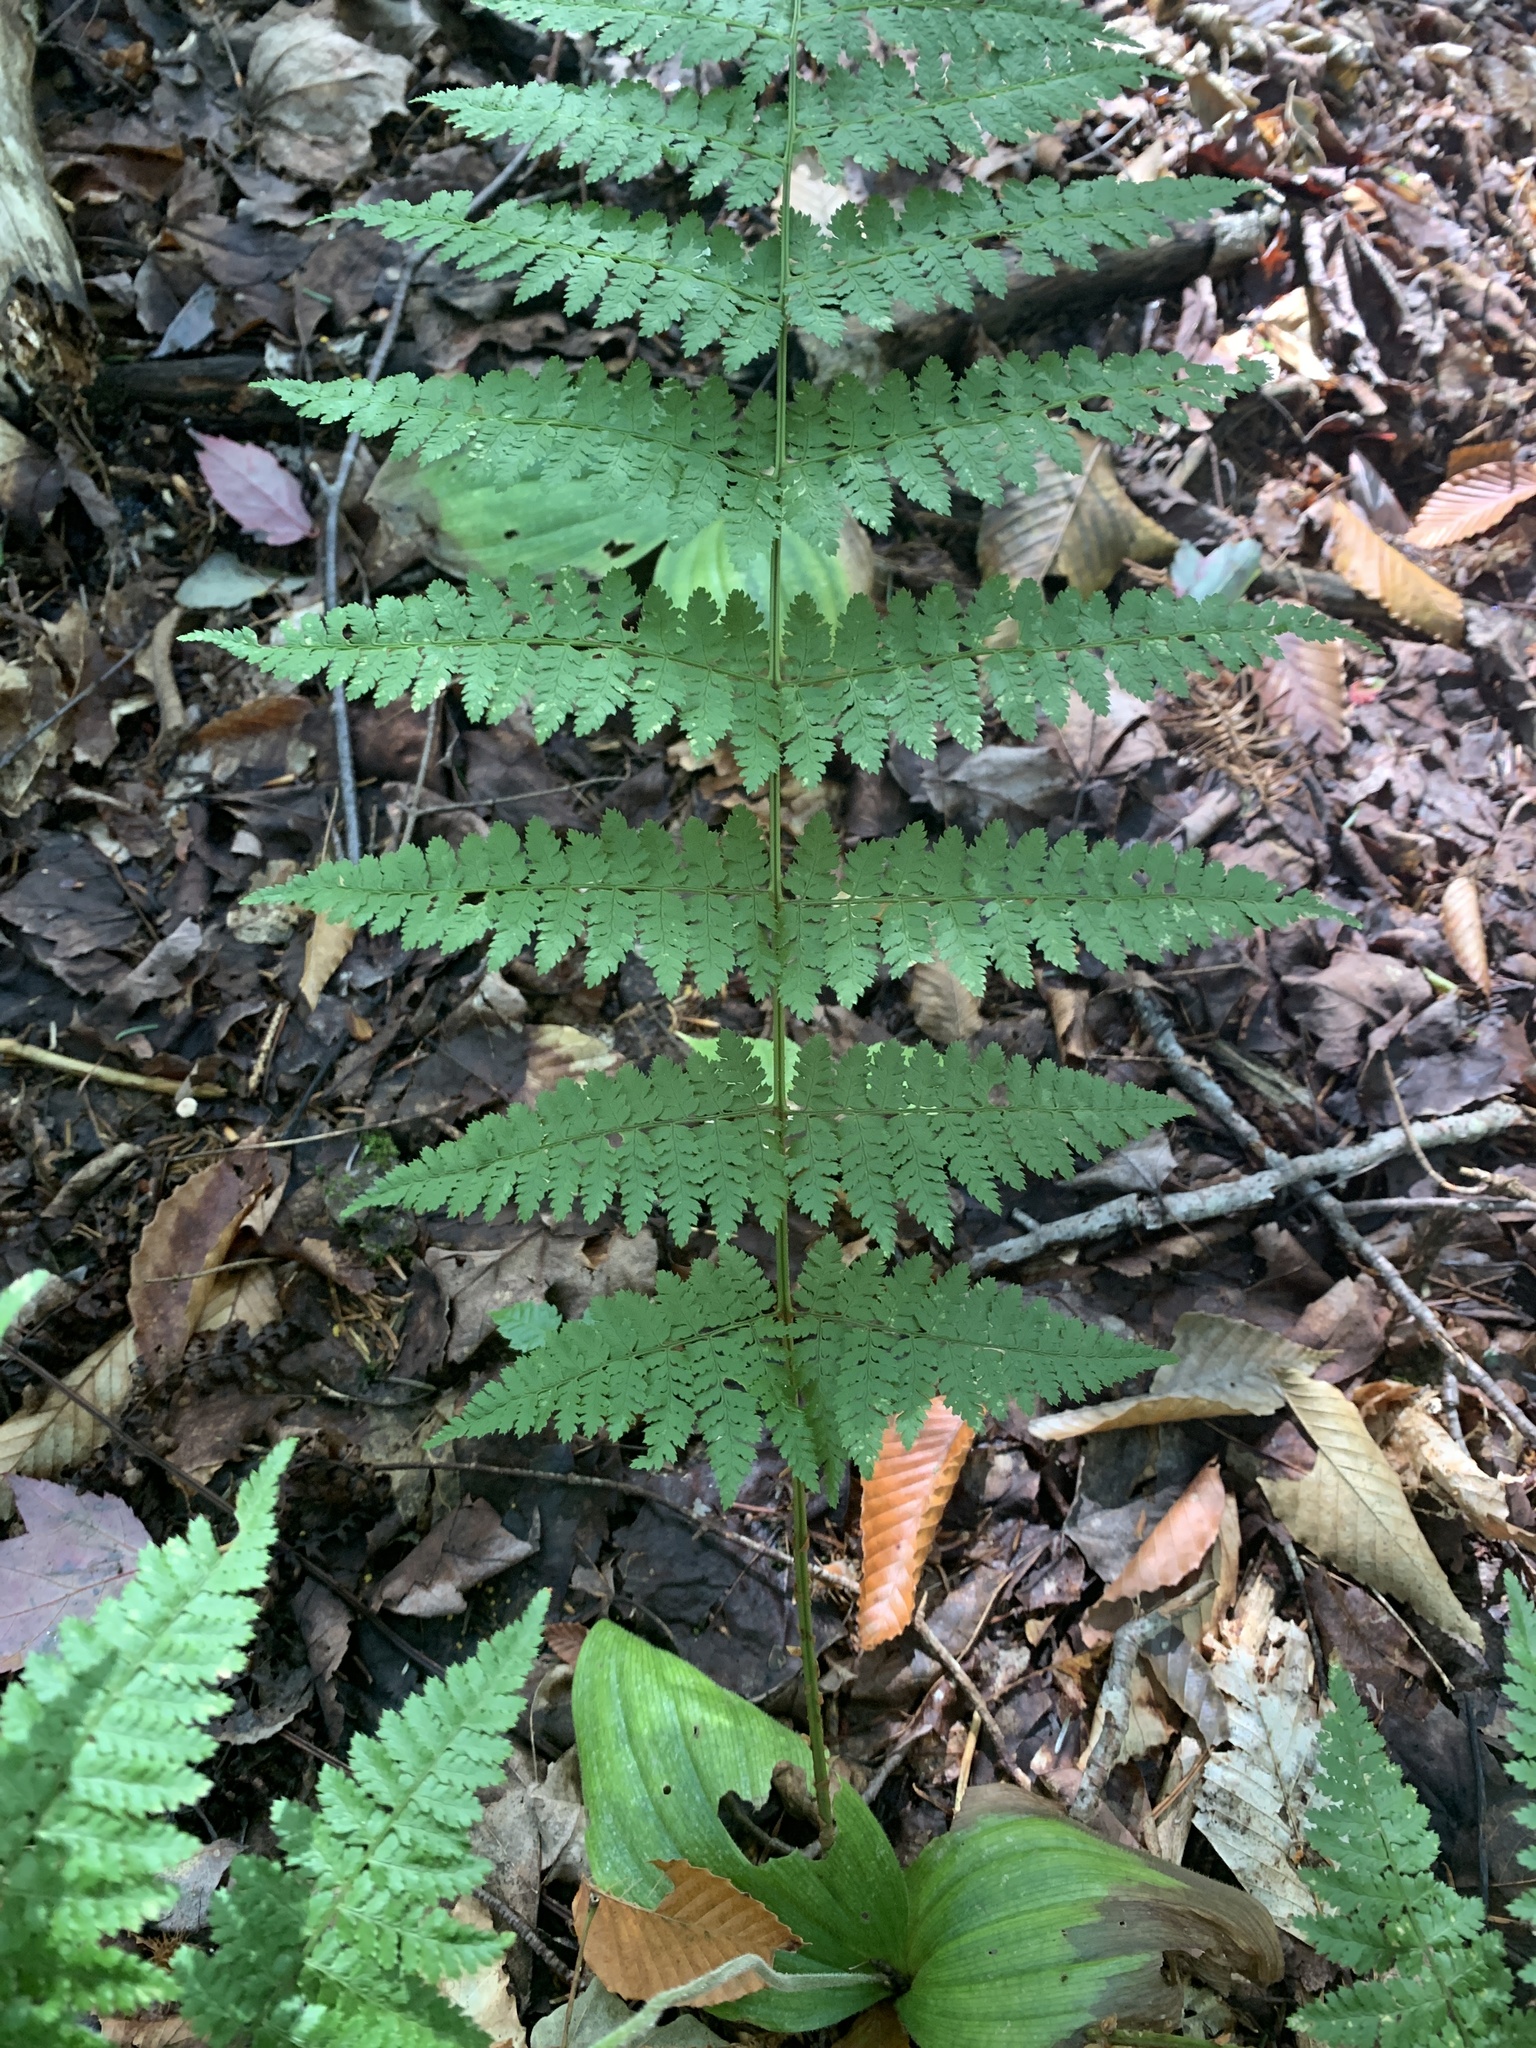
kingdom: Plantae
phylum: Tracheophyta
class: Polypodiopsida
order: Polypodiales
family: Dryopteridaceae
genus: Dryopteris
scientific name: Dryopteris intermedia
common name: Evergreen wood fern
